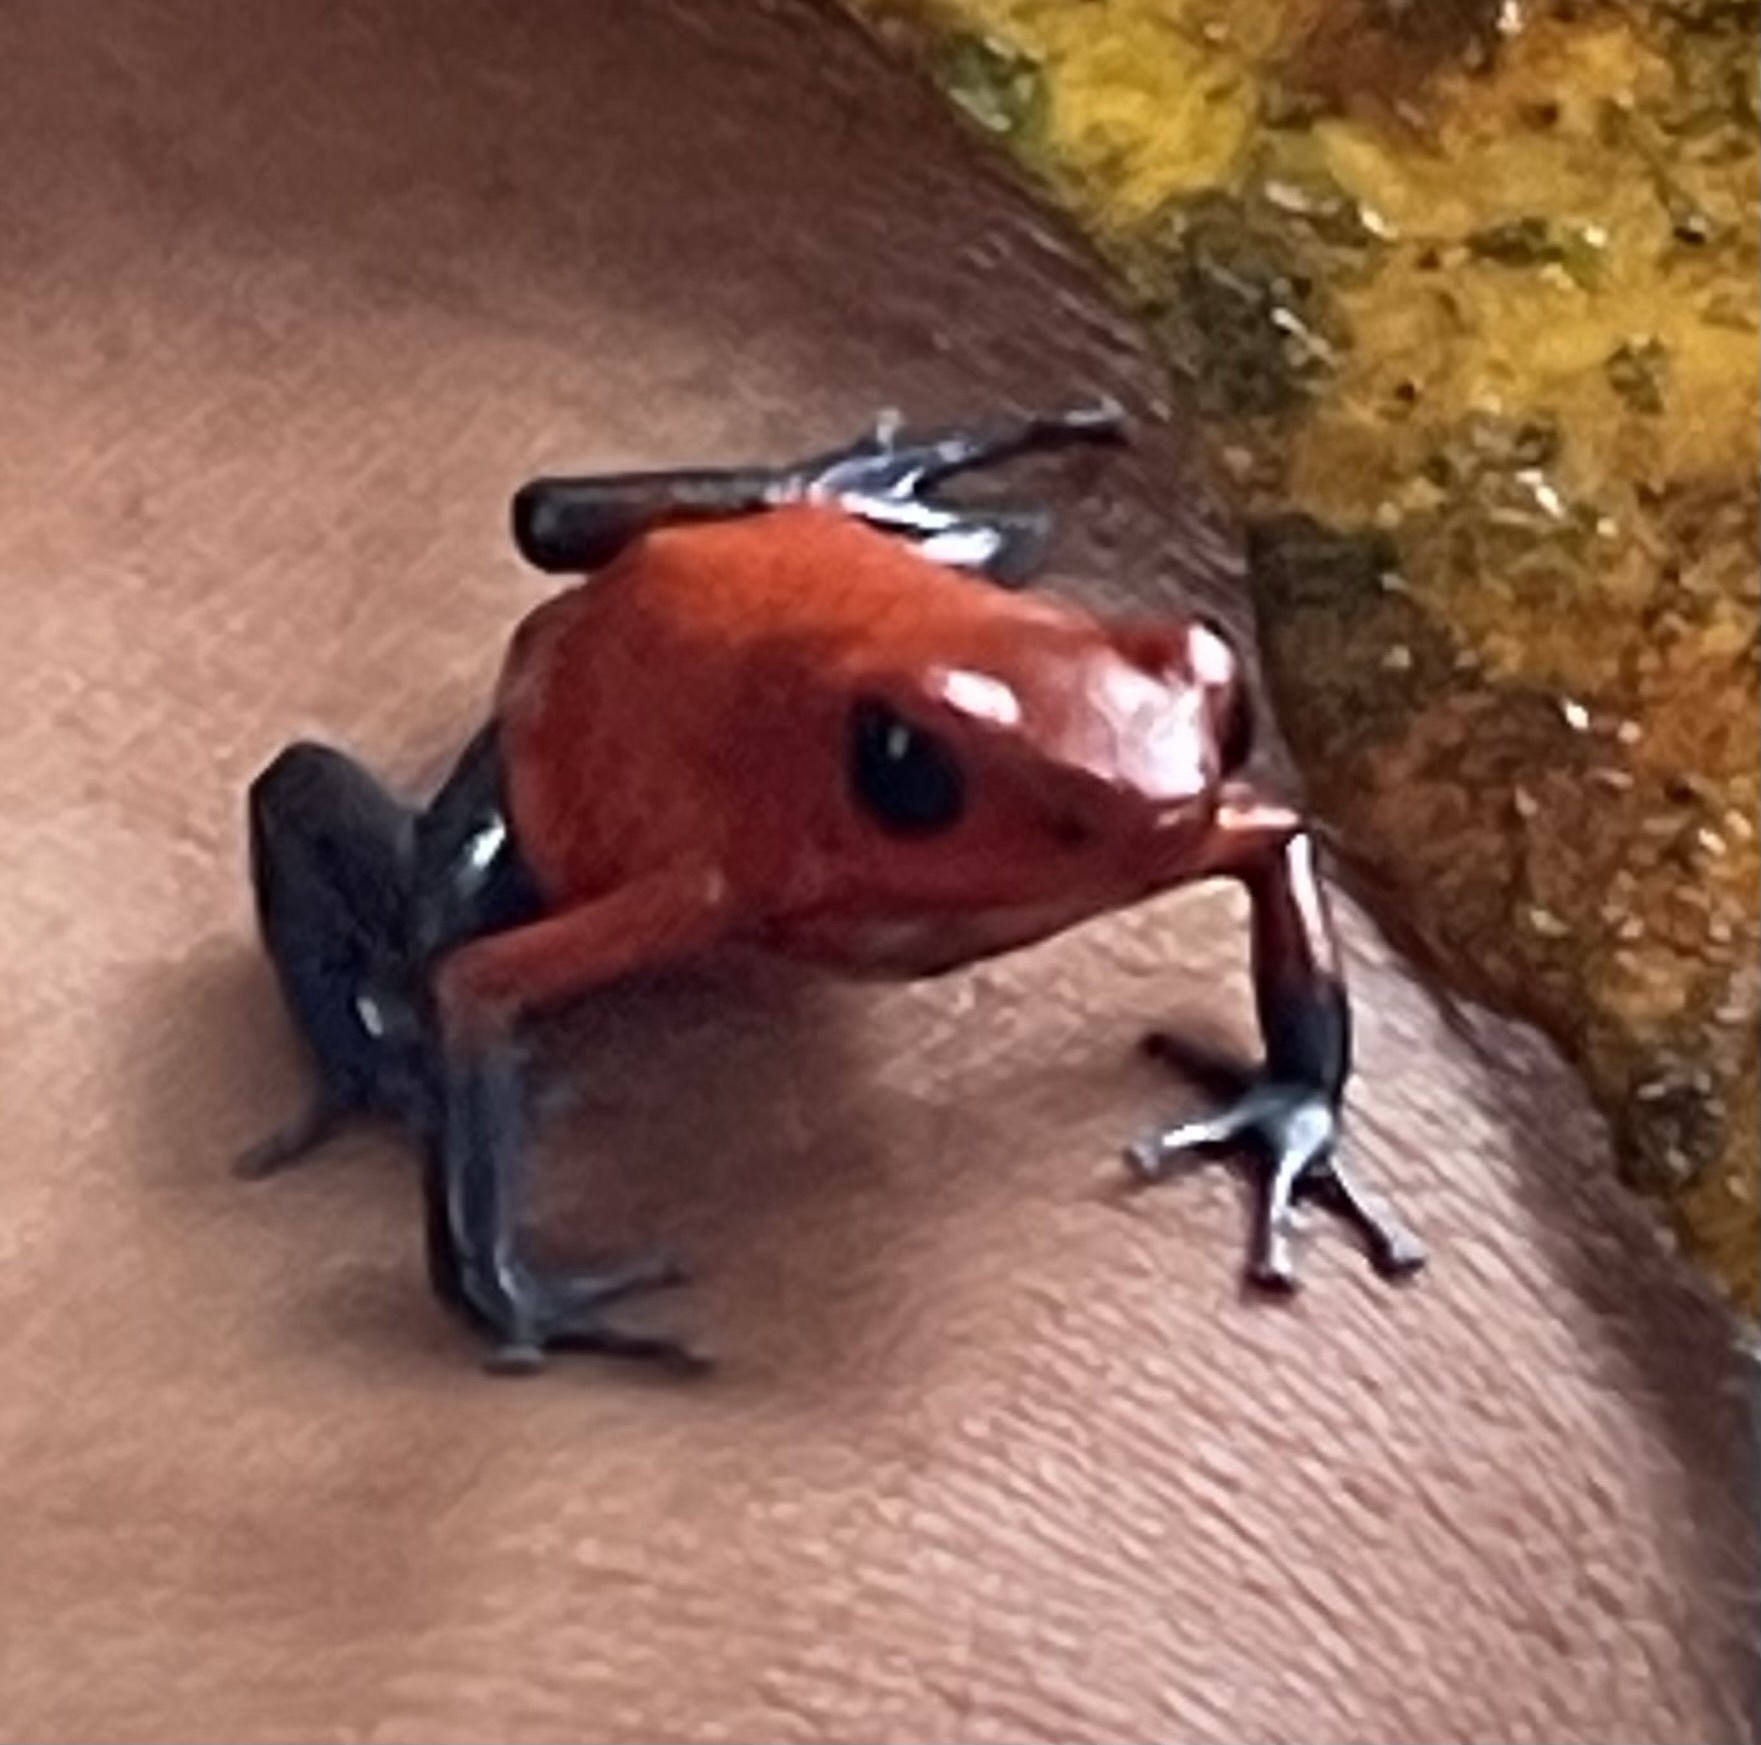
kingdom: Animalia
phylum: Chordata
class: Amphibia
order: Anura
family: Dendrobatidae
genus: Oophaga
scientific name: Oophaga pumilio
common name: Flaming poison frog
